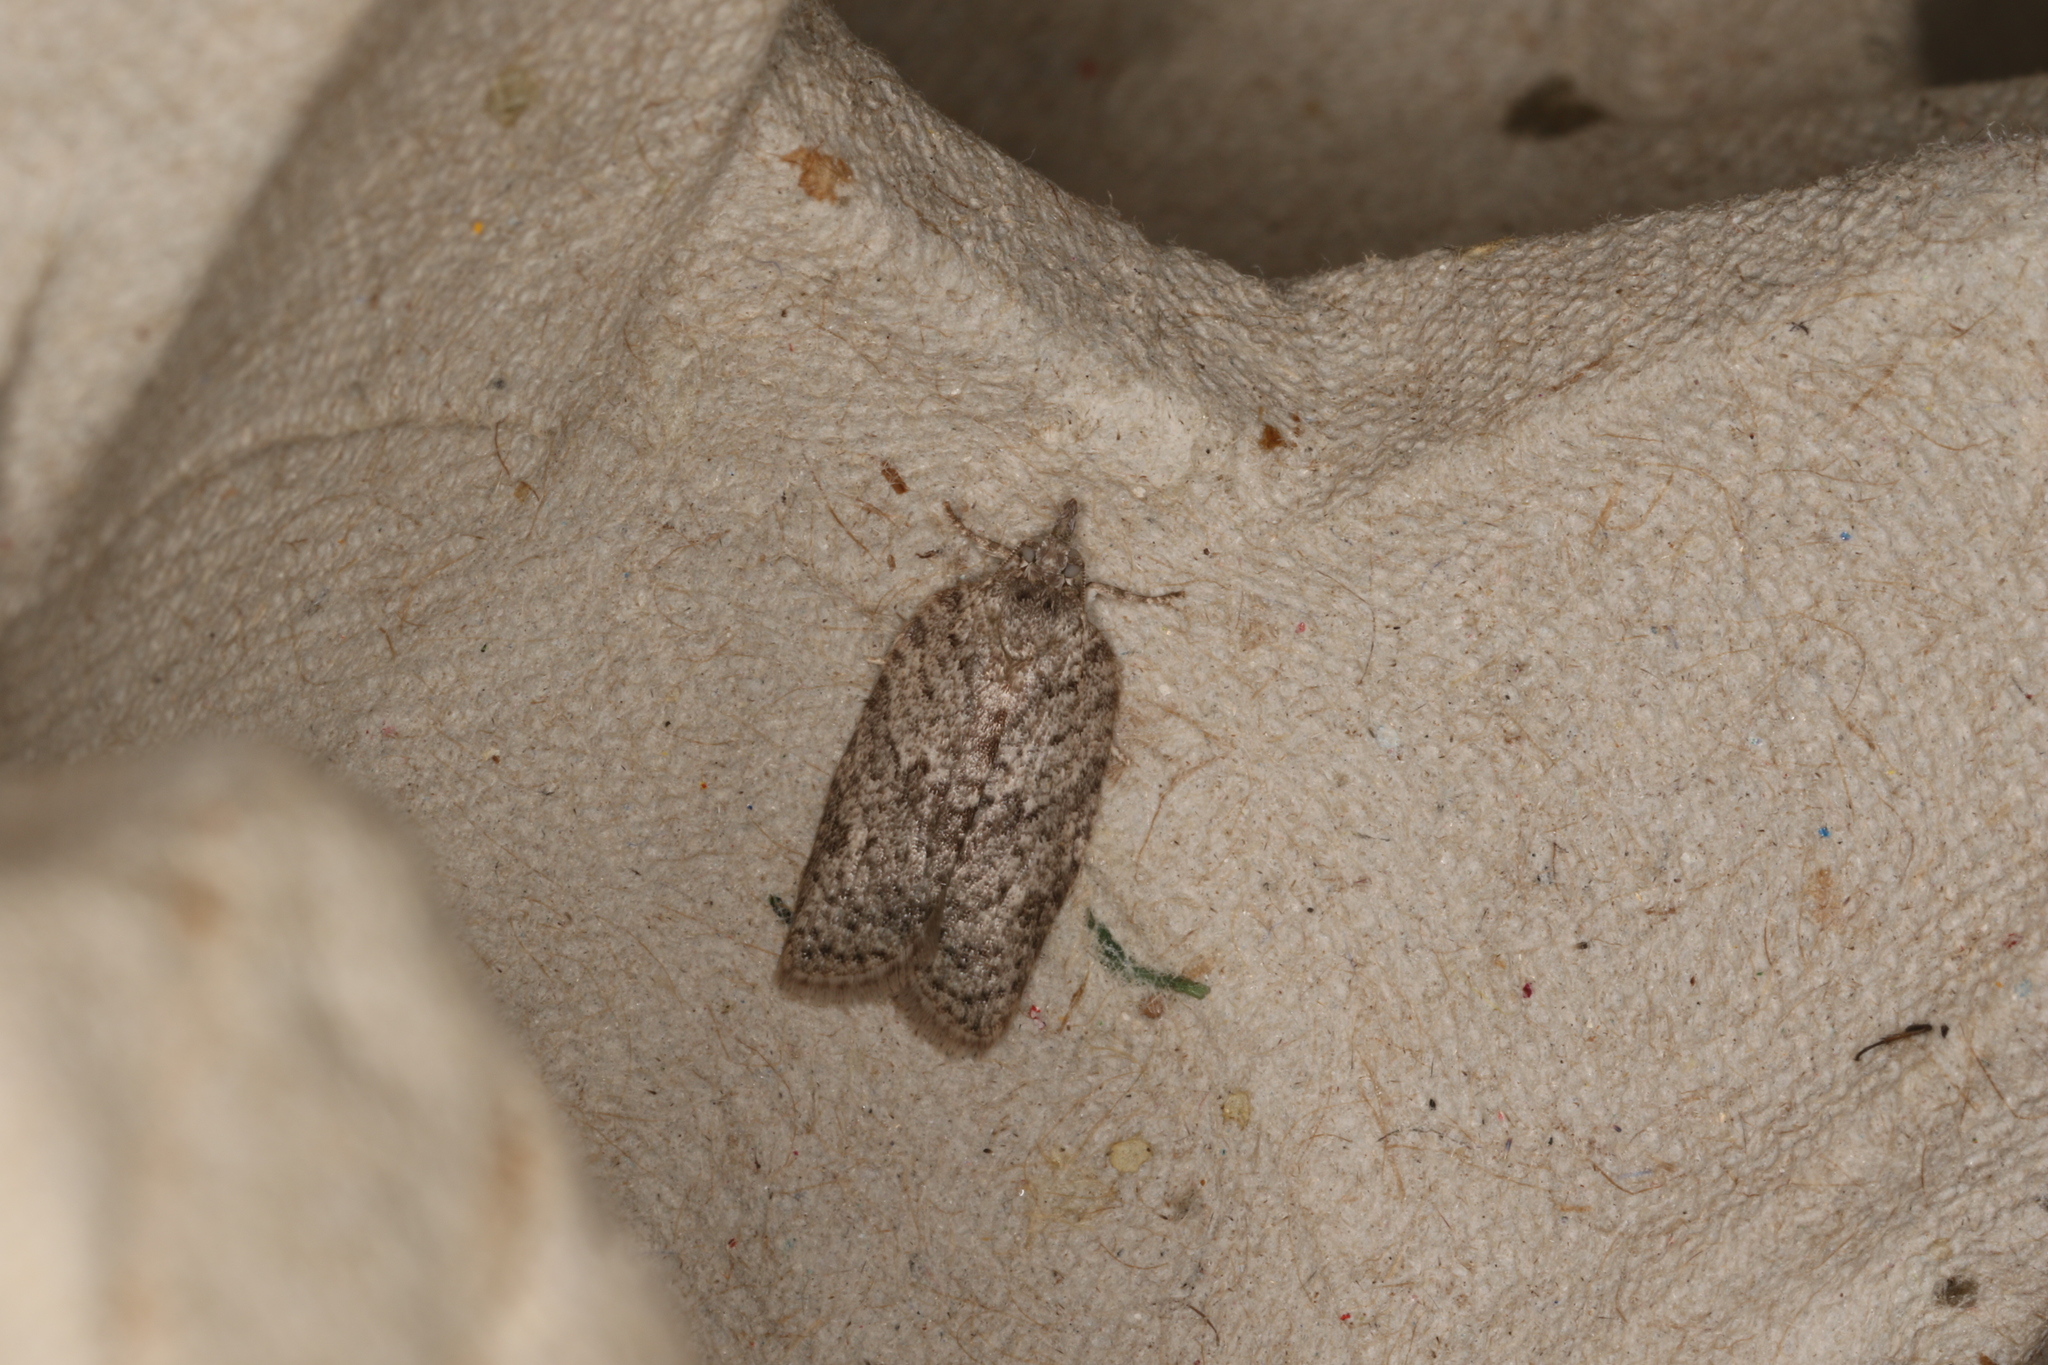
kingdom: Animalia
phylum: Arthropoda
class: Insecta
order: Lepidoptera
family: Tortricidae
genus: Isotenes
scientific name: Isotenes miserana
